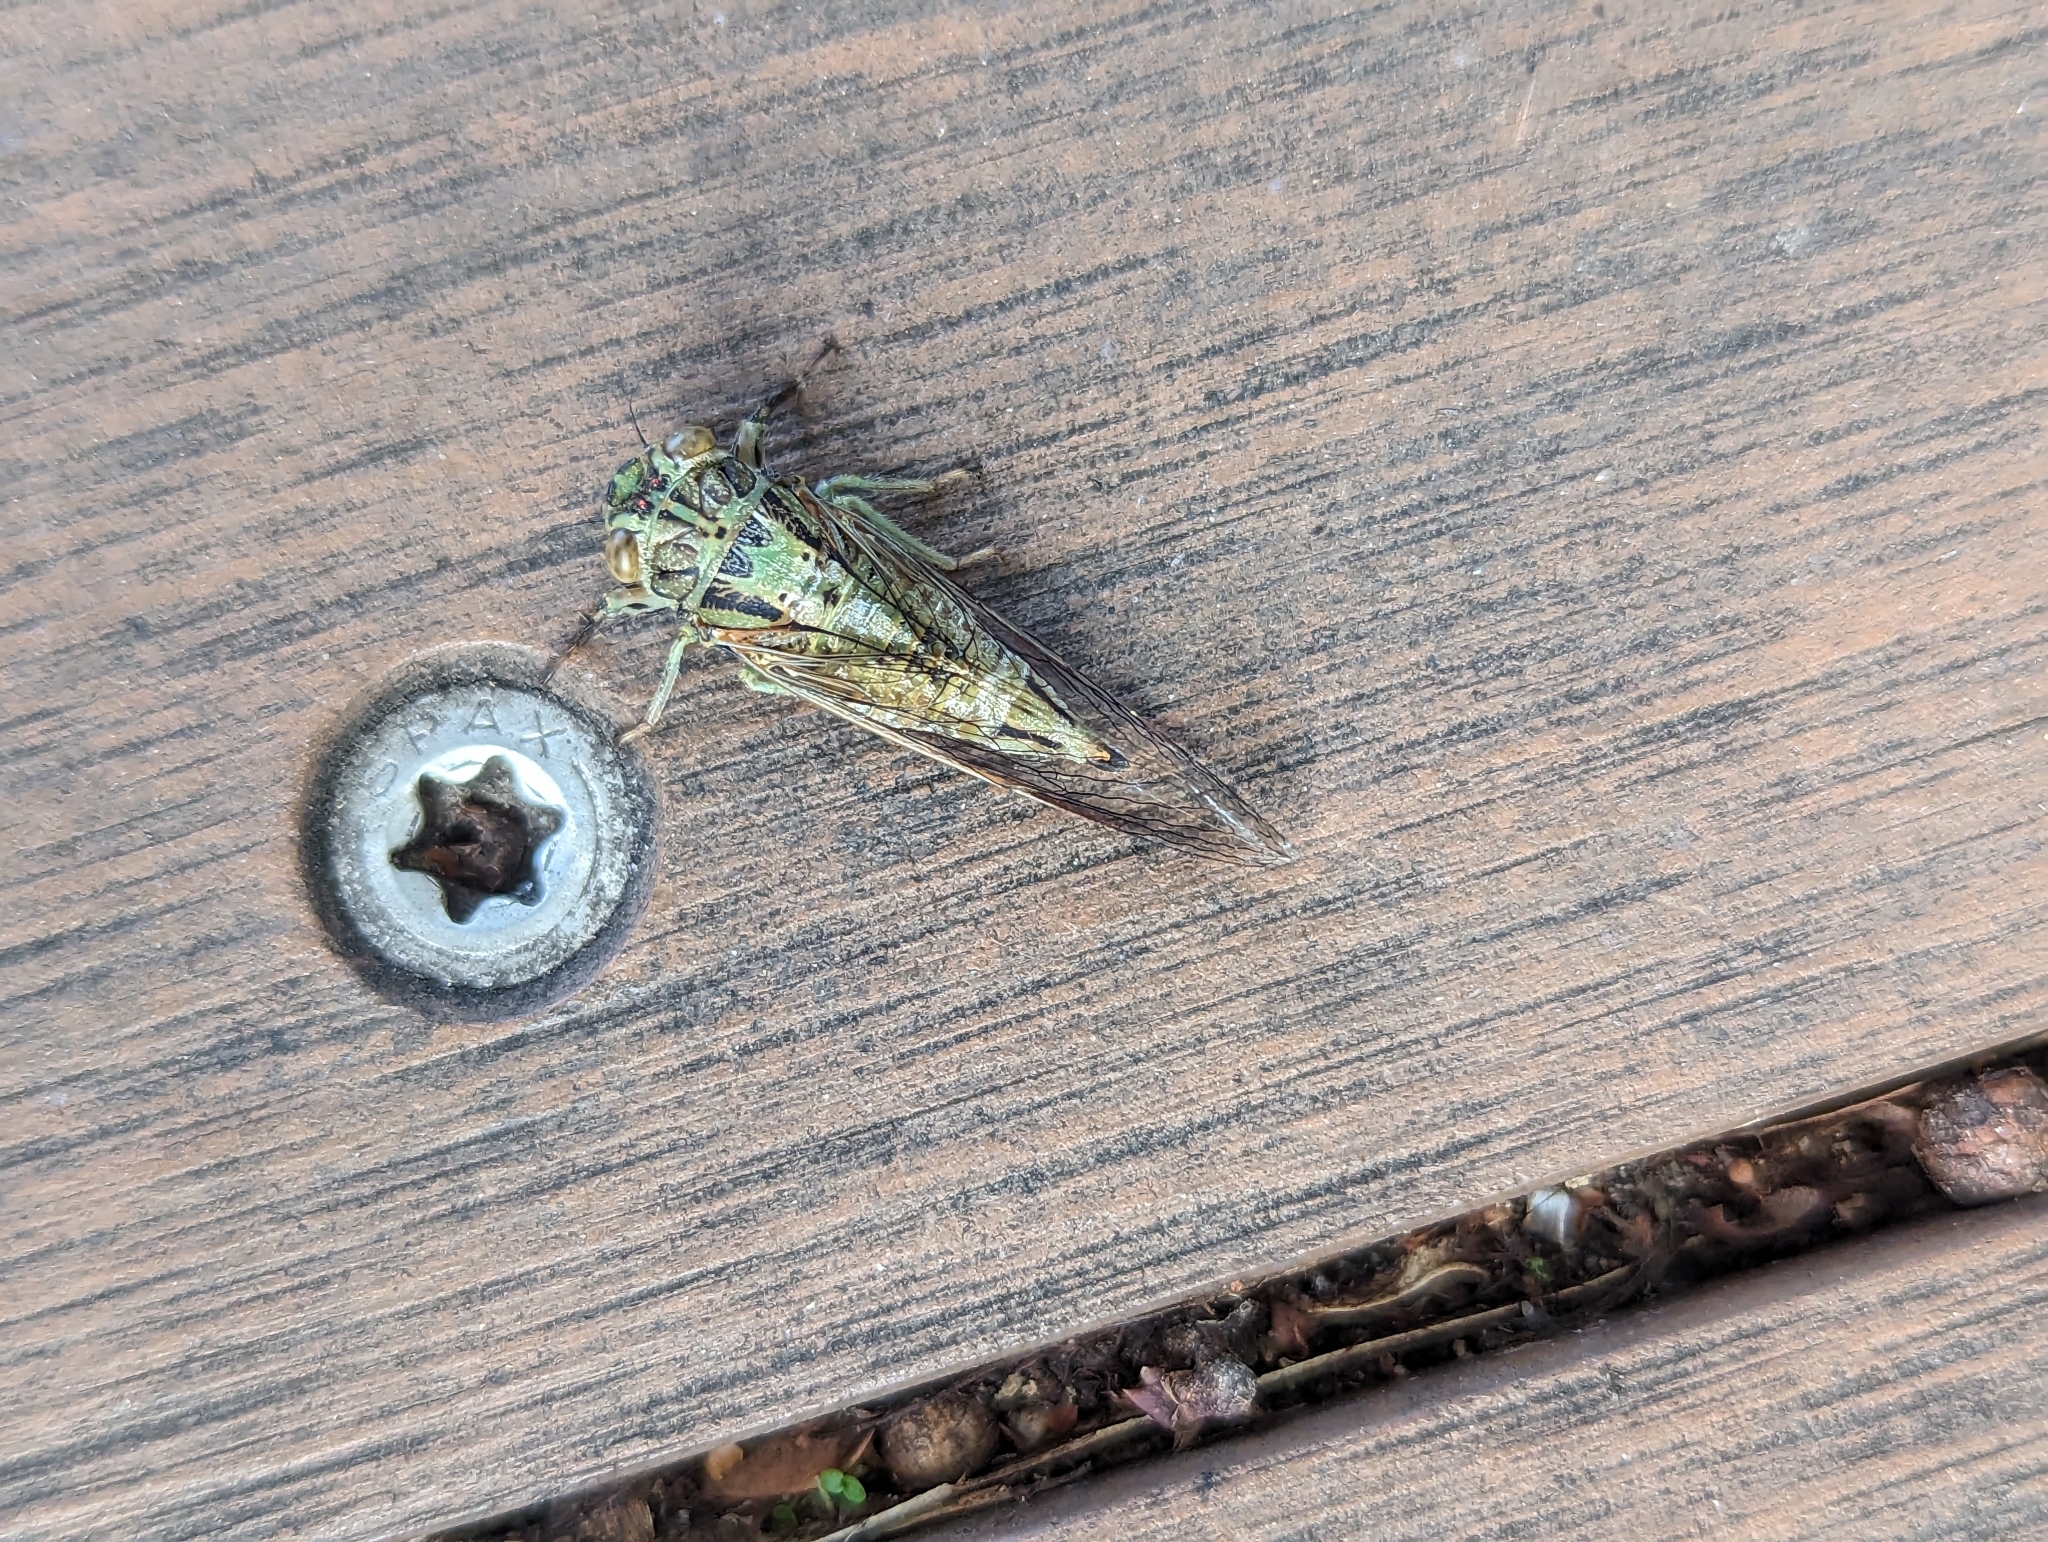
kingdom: Animalia
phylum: Arthropoda
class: Insecta
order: Hemiptera
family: Cicadidae
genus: Yoyetta
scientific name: Yoyetta celis
